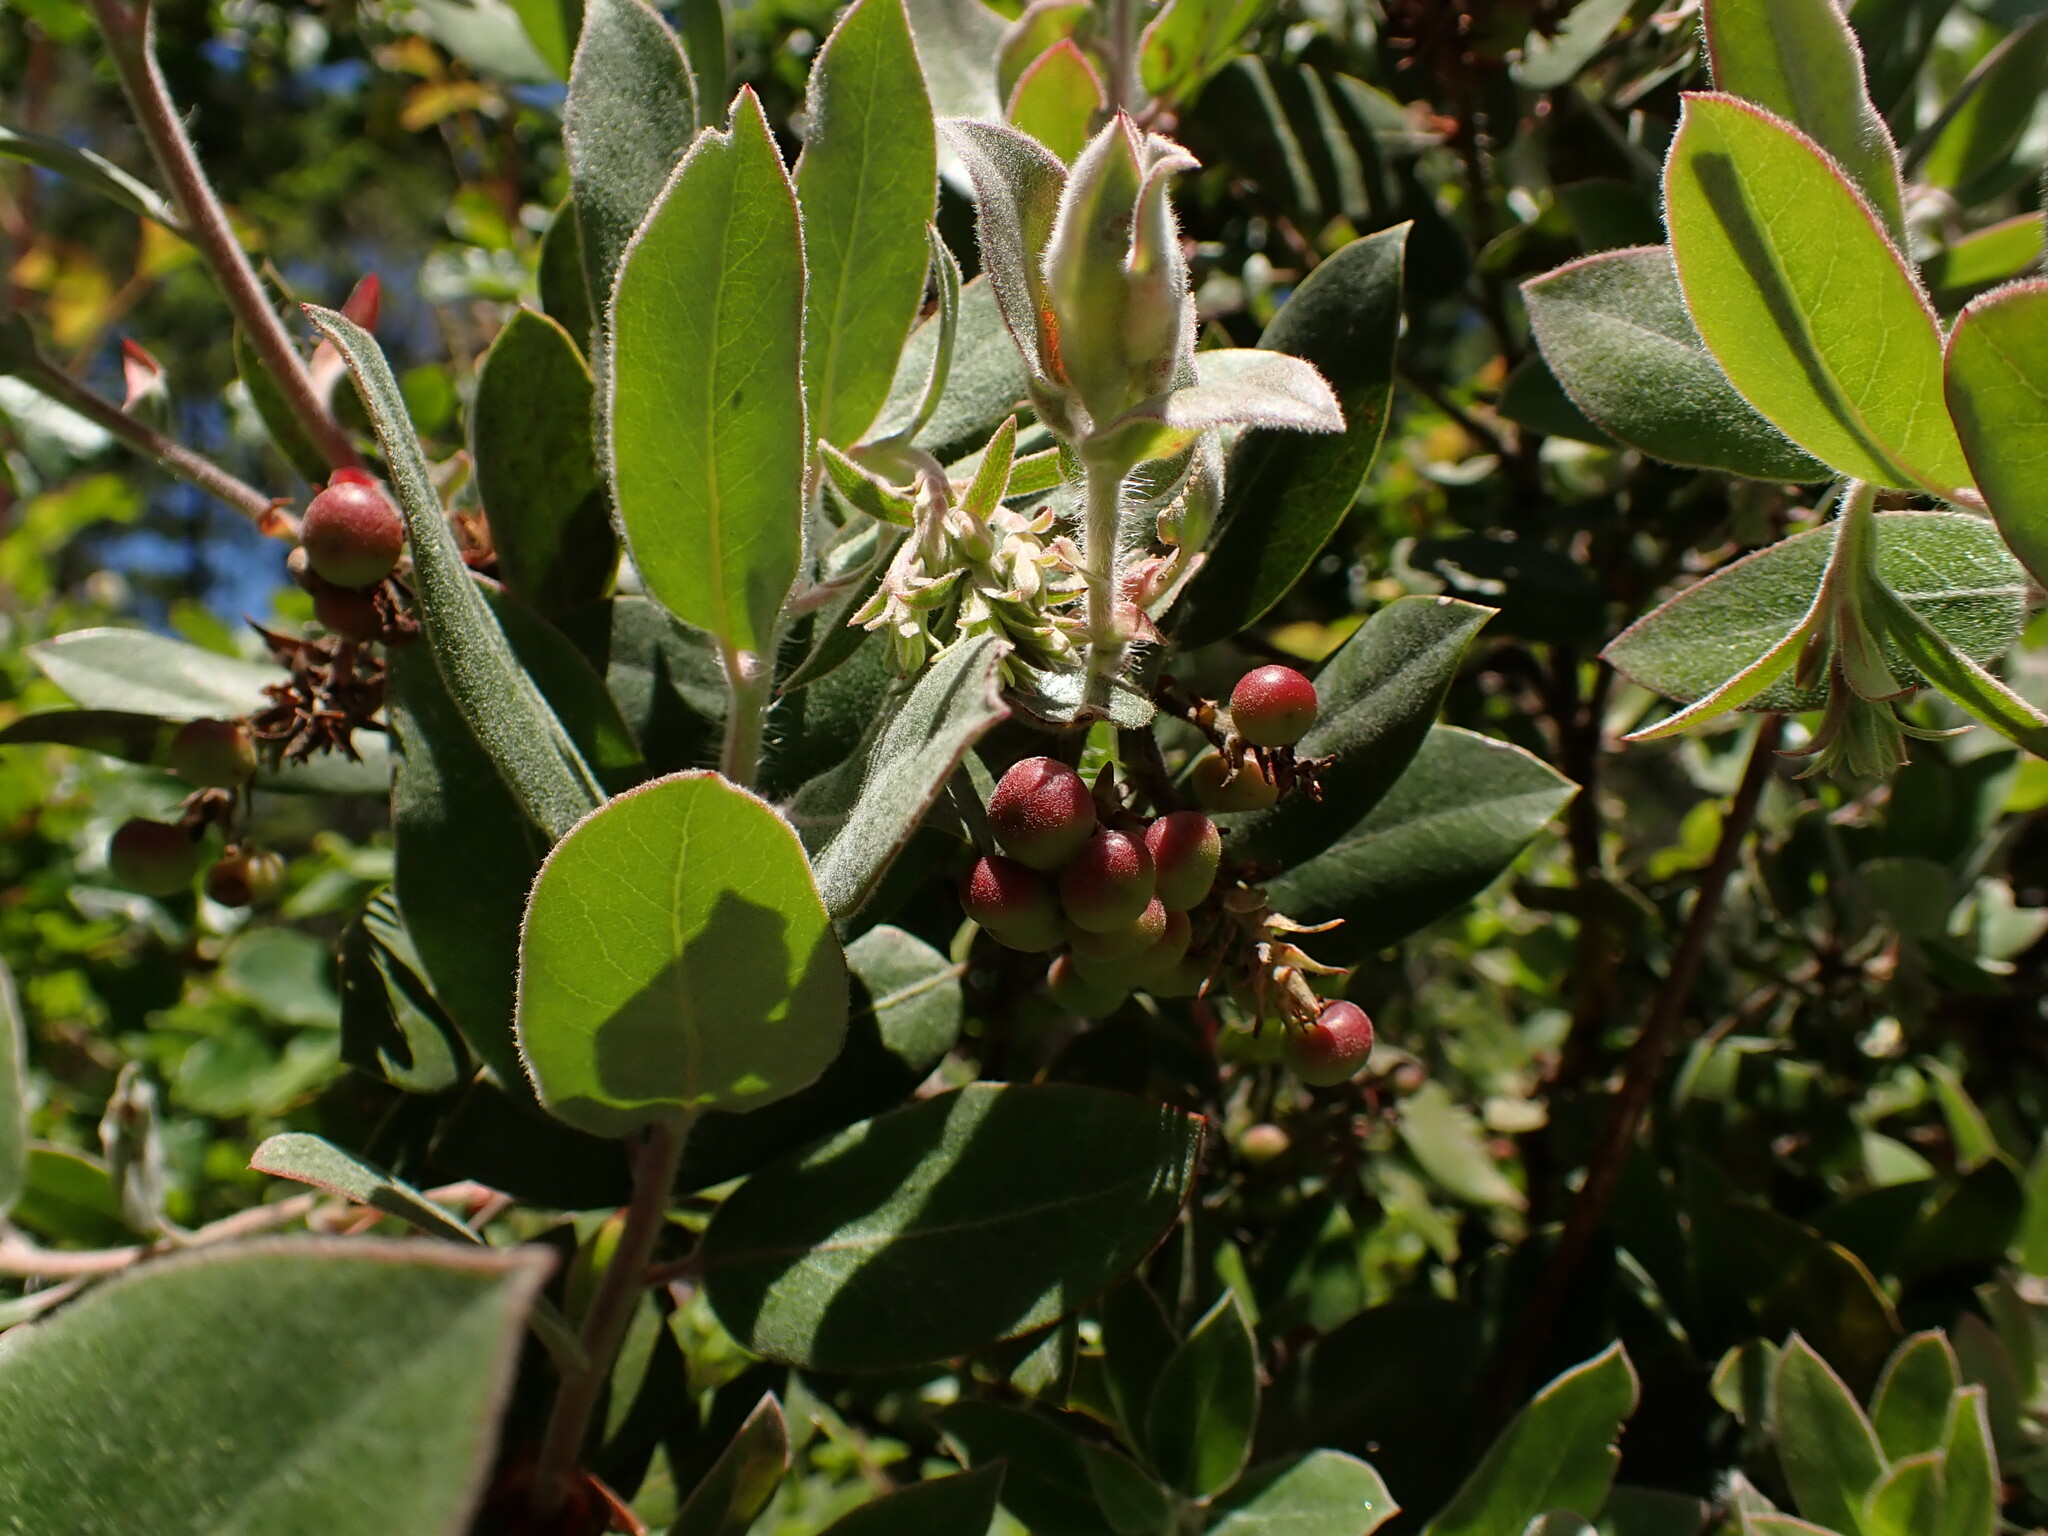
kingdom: Plantae
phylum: Tracheophyta
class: Magnoliopsida
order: Ericales
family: Ericaceae
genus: Arctostaphylos
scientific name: Arctostaphylos crustacea
